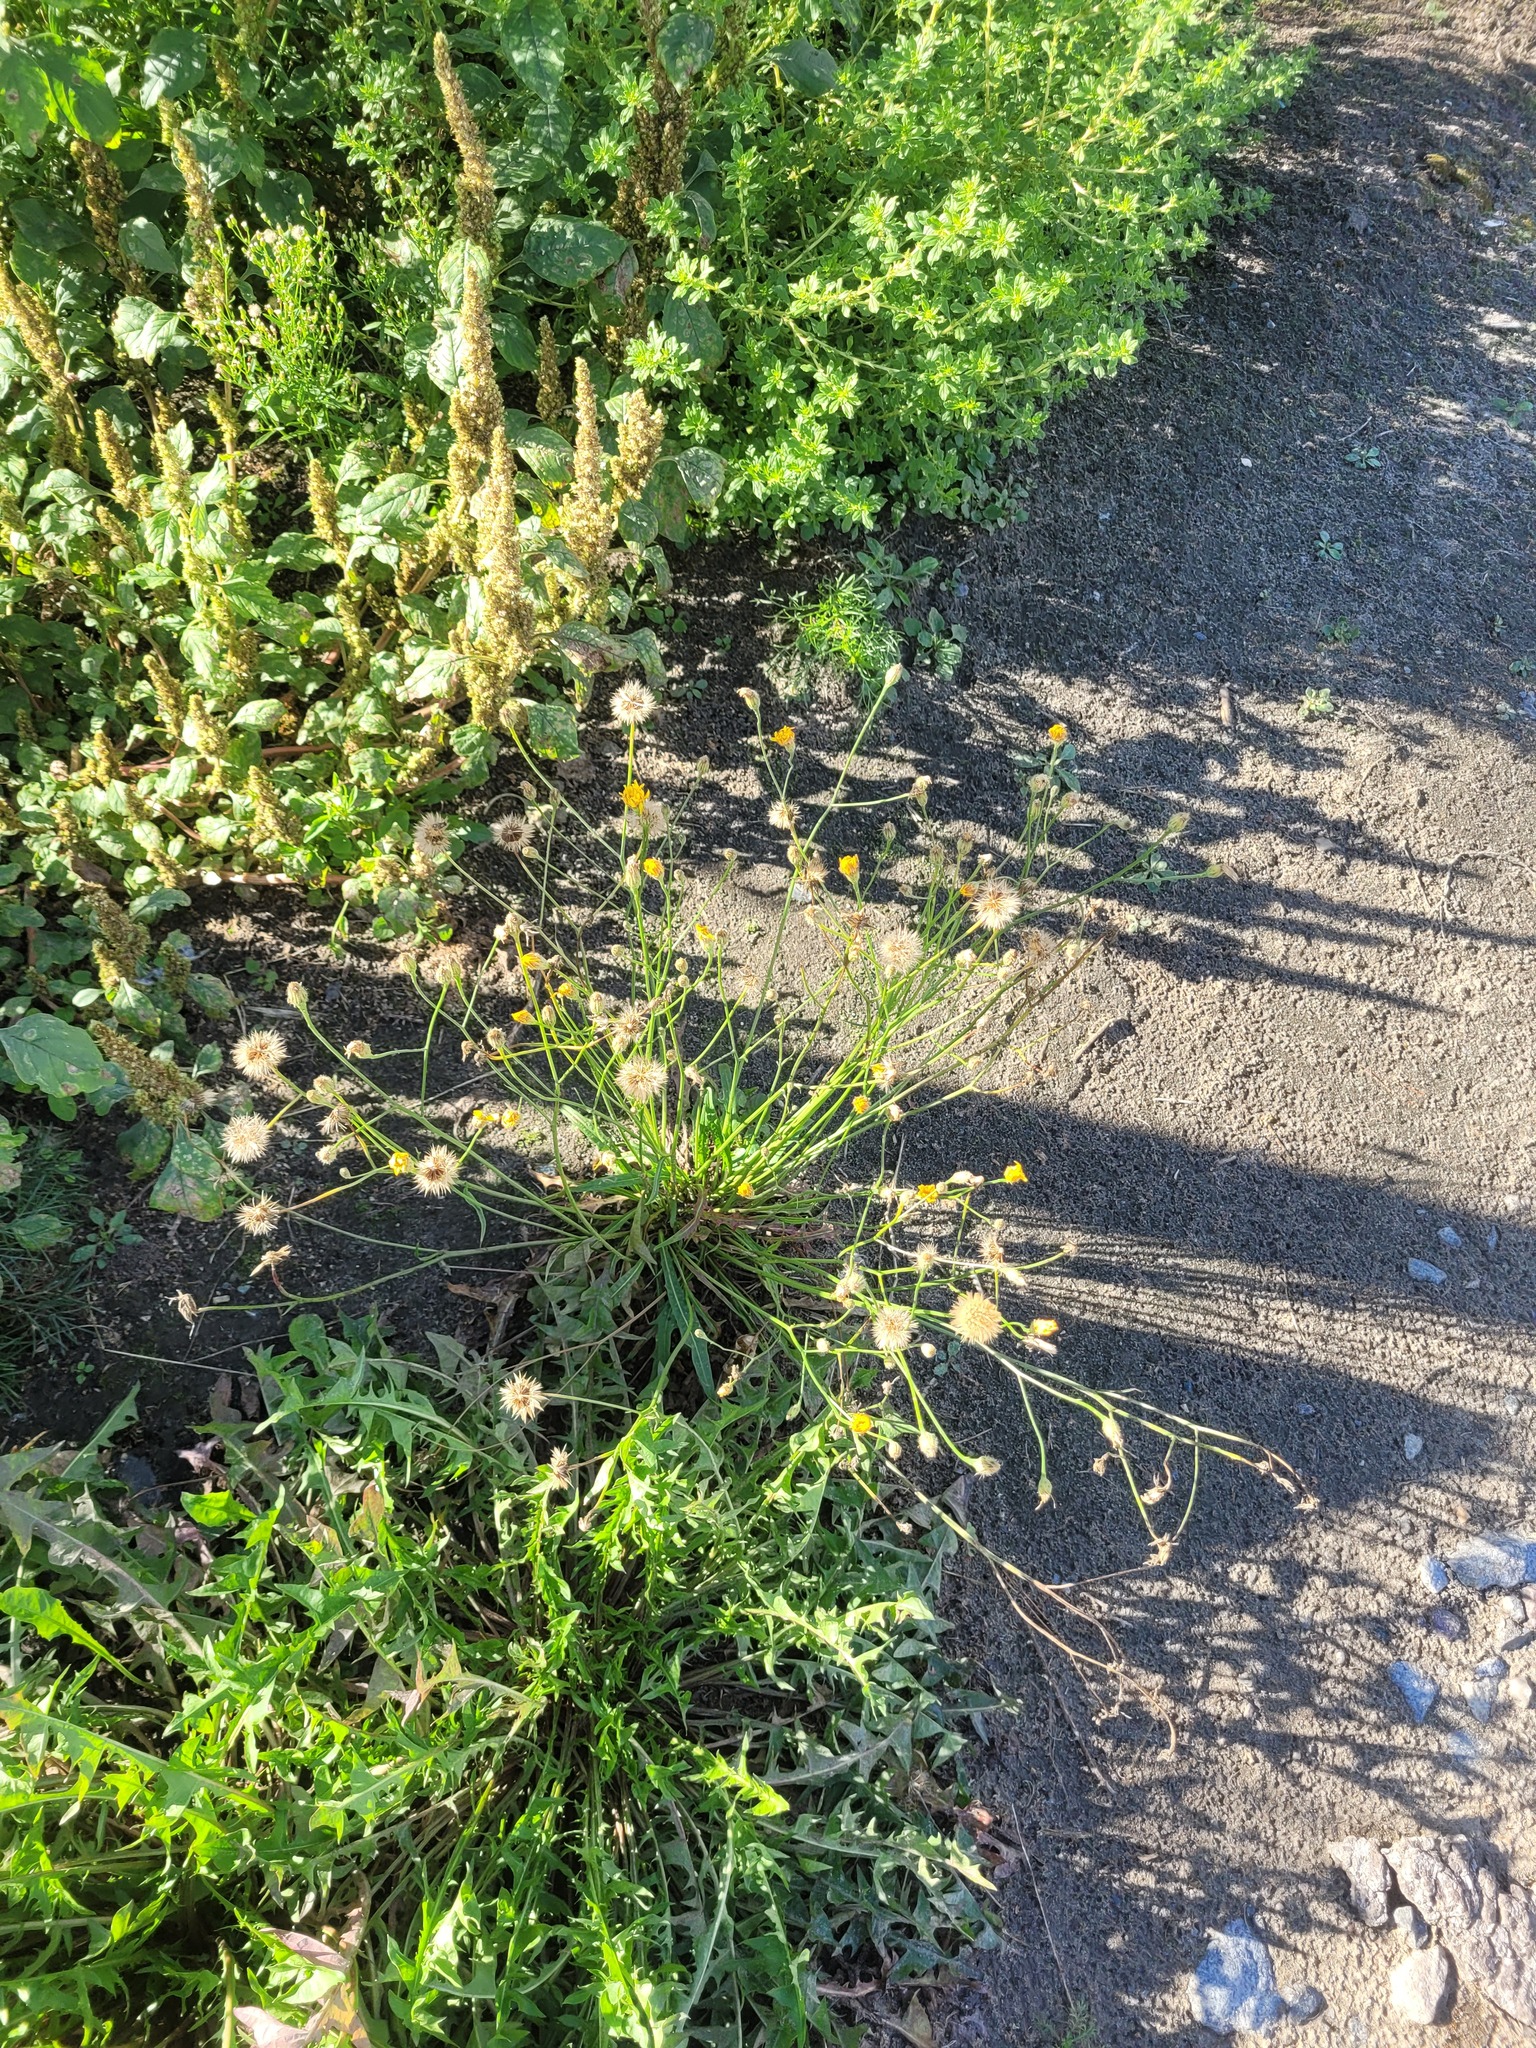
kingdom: Plantae
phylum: Tracheophyta
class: Magnoliopsida
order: Asterales
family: Asteraceae
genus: Scorzoneroides
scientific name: Scorzoneroides autumnalis
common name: Autumn hawkbit
